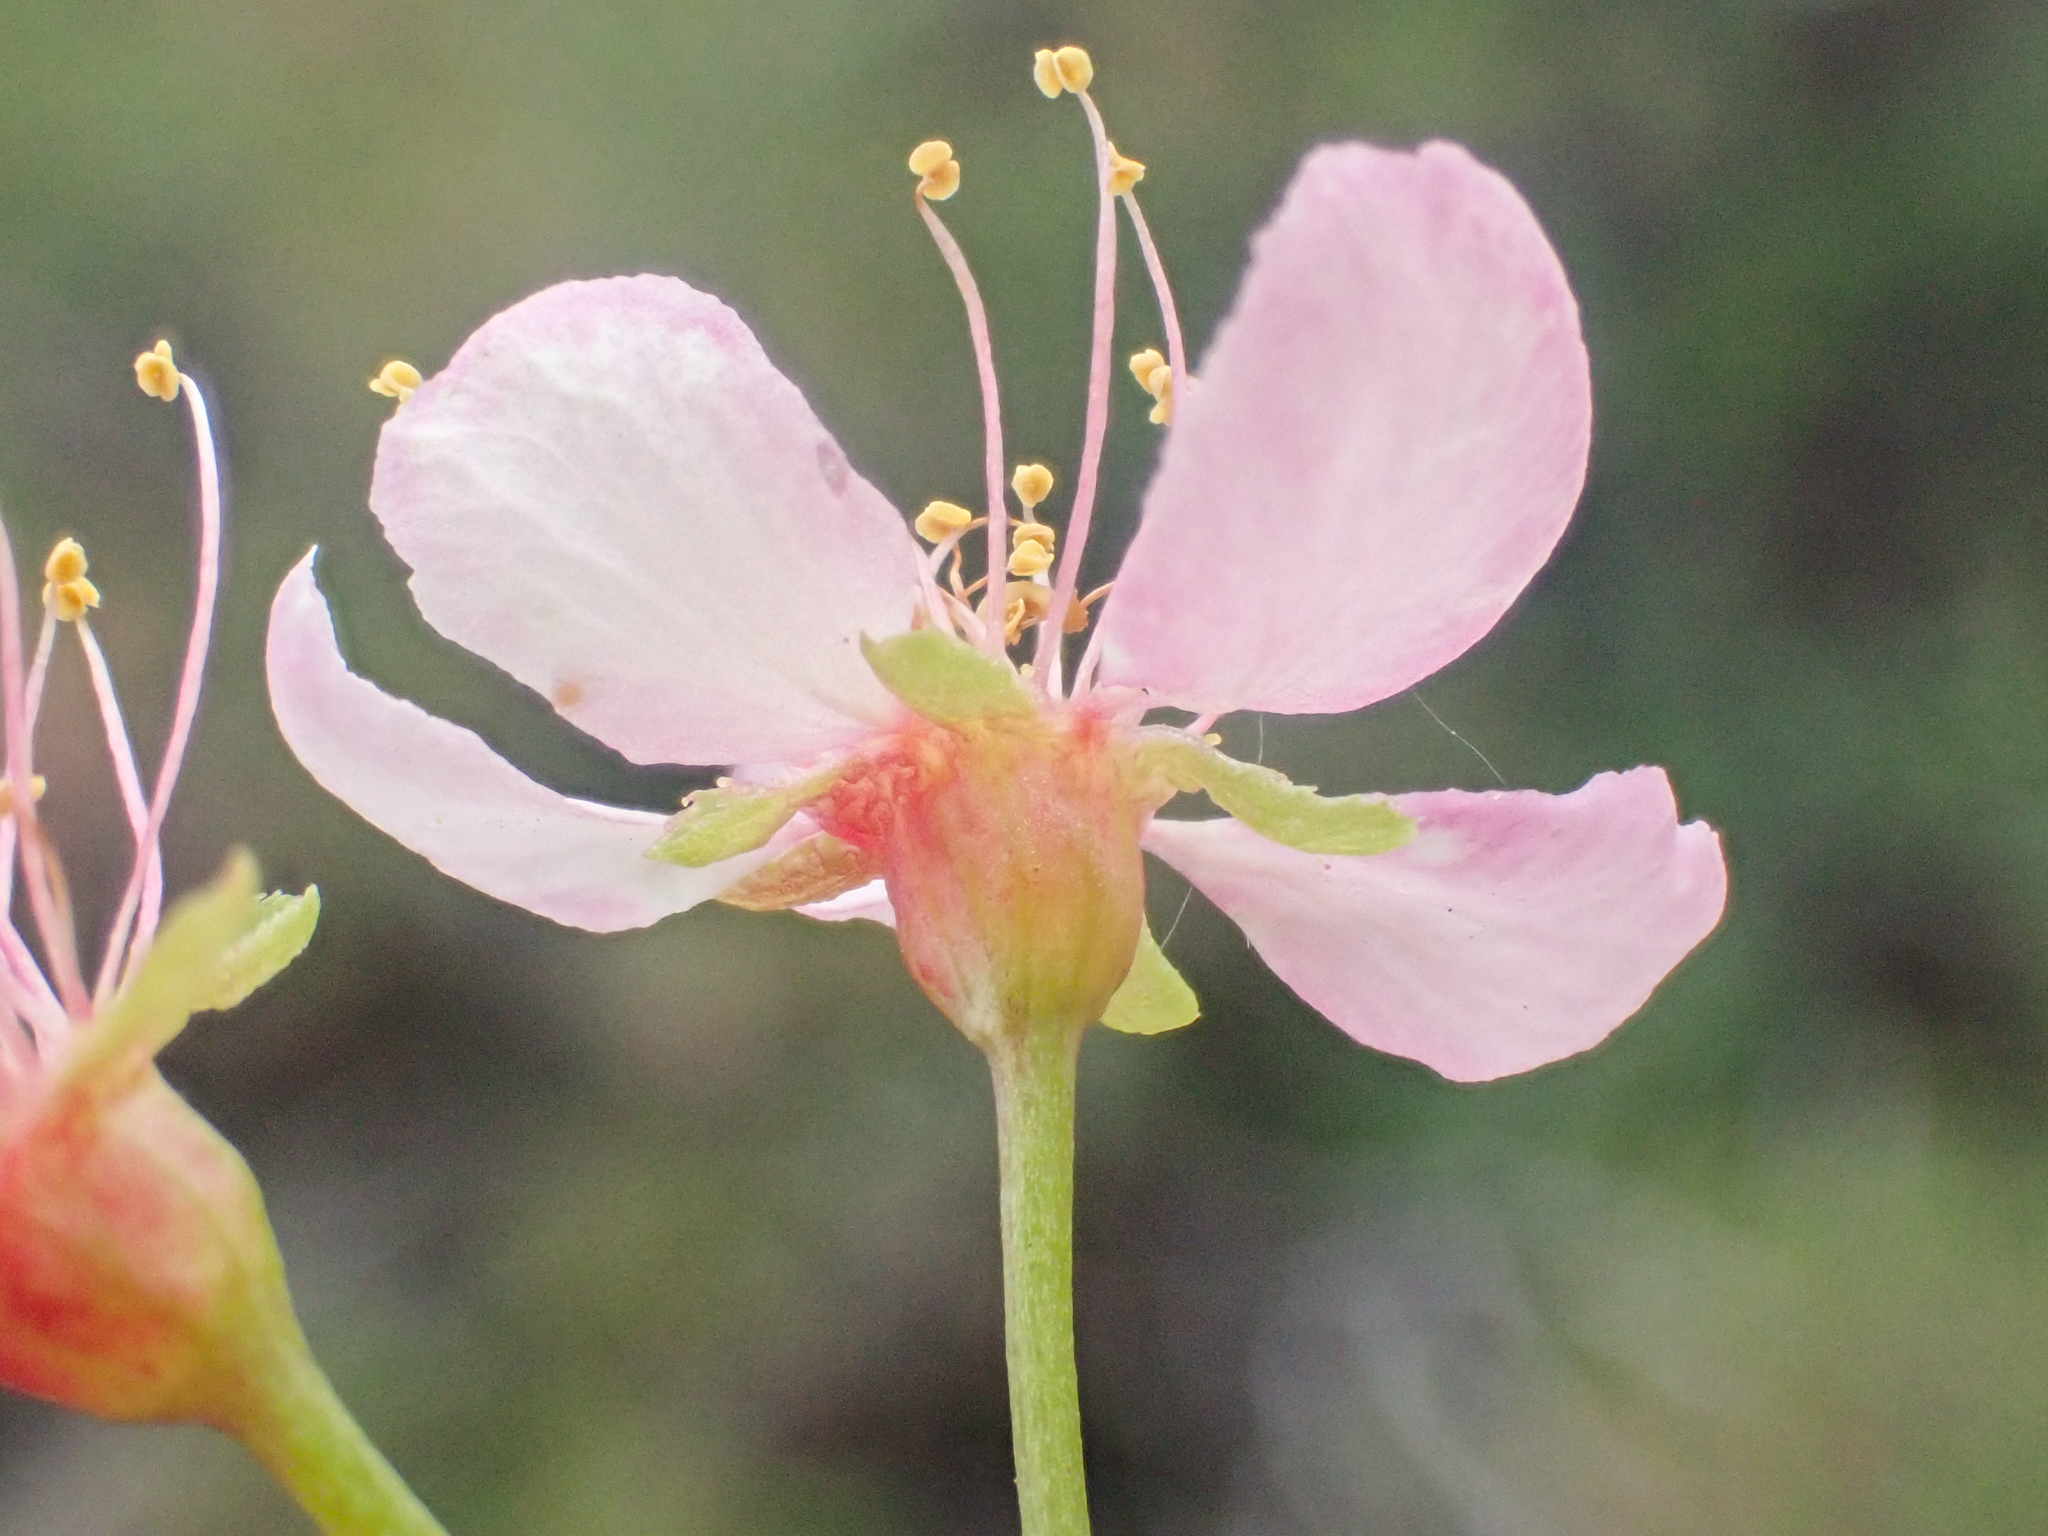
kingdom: Plantae
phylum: Tracheophyta
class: Magnoliopsida
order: Rosales
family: Rosaceae
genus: Prunus
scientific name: Prunus subcordata
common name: Klamath plum
